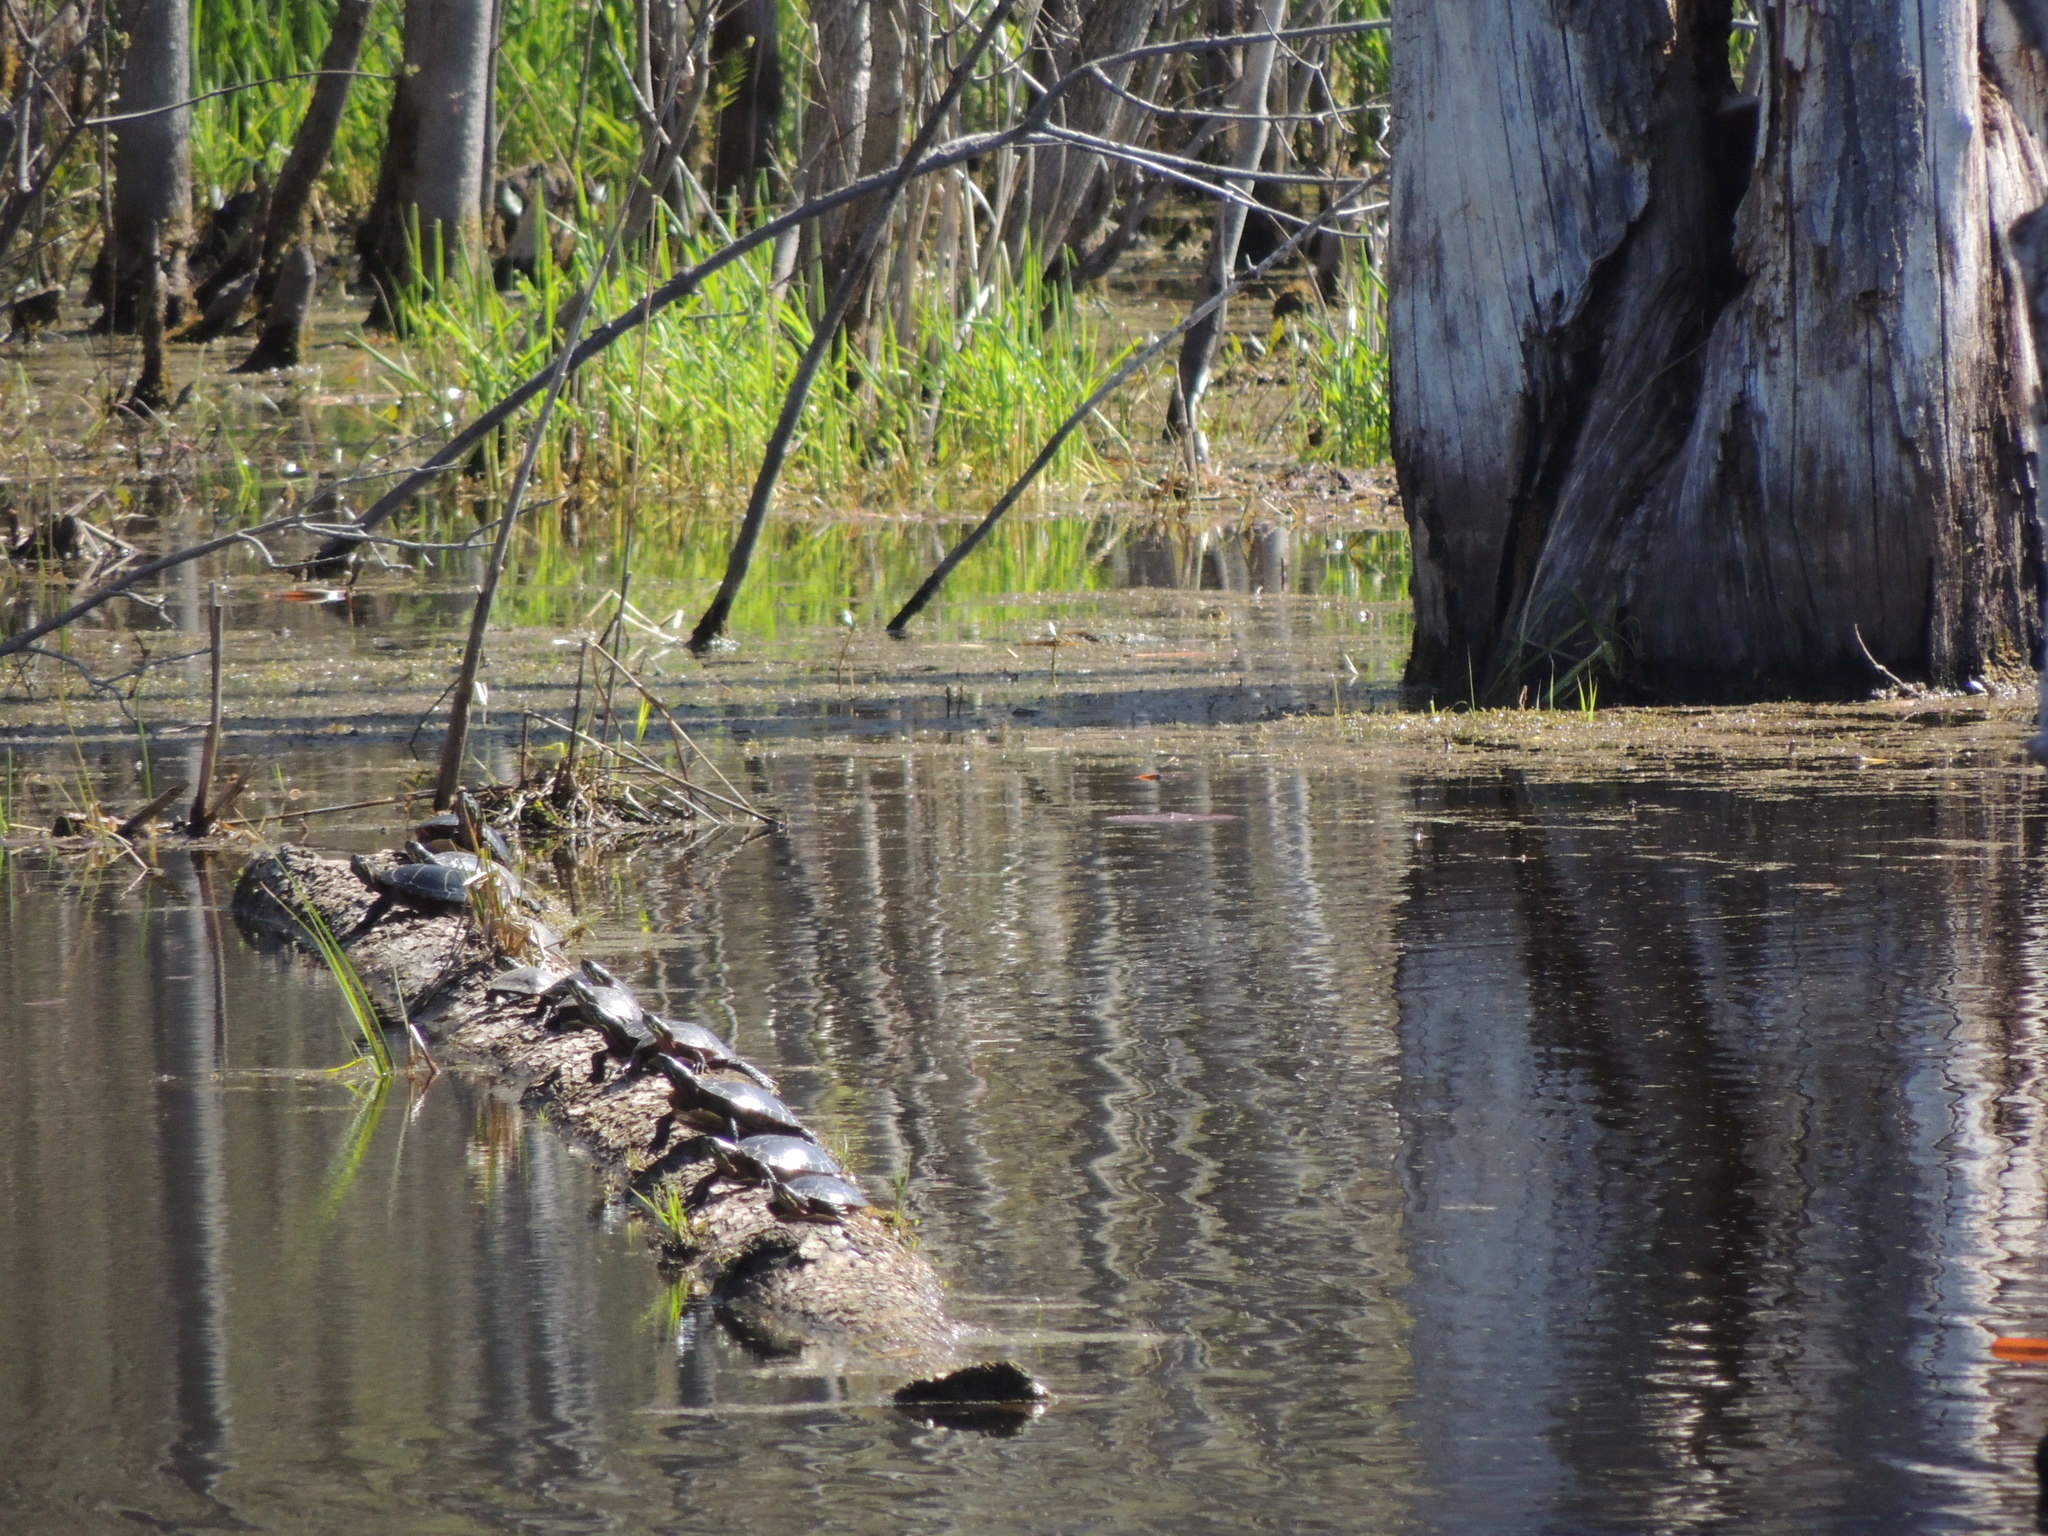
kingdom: Animalia
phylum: Chordata
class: Testudines
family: Emydidae
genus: Chrysemys
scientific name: Chrysemys picta
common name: Painted turtle
